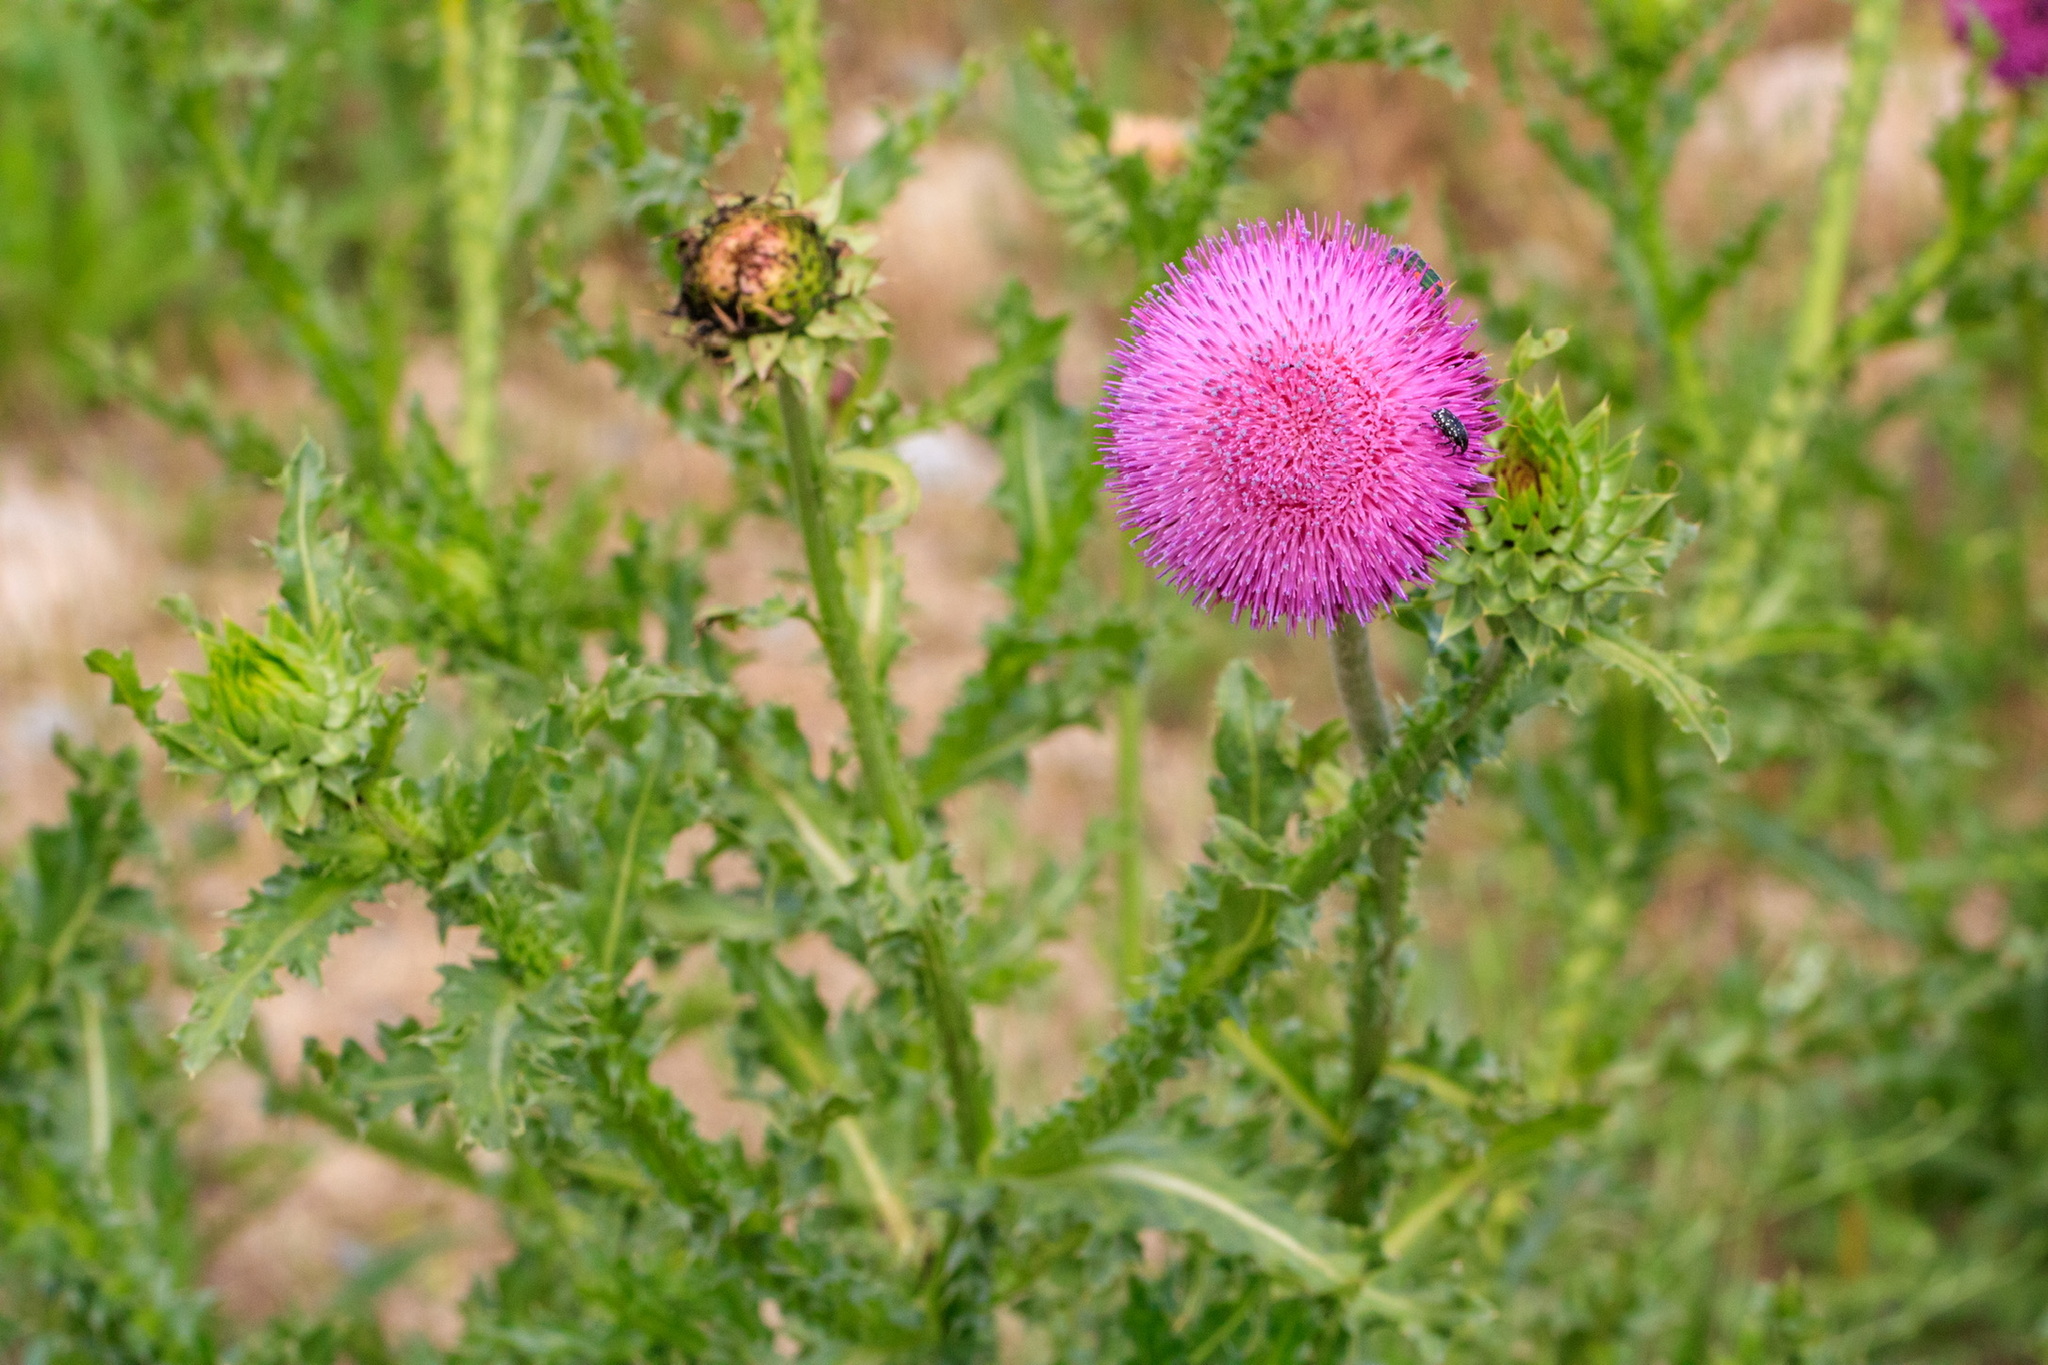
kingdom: Plantae
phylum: Tracheophyta
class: Magnoliopsida
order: Asterales
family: Asteraceae
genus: Carduus
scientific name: Carduus nutans
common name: Musk thistle
